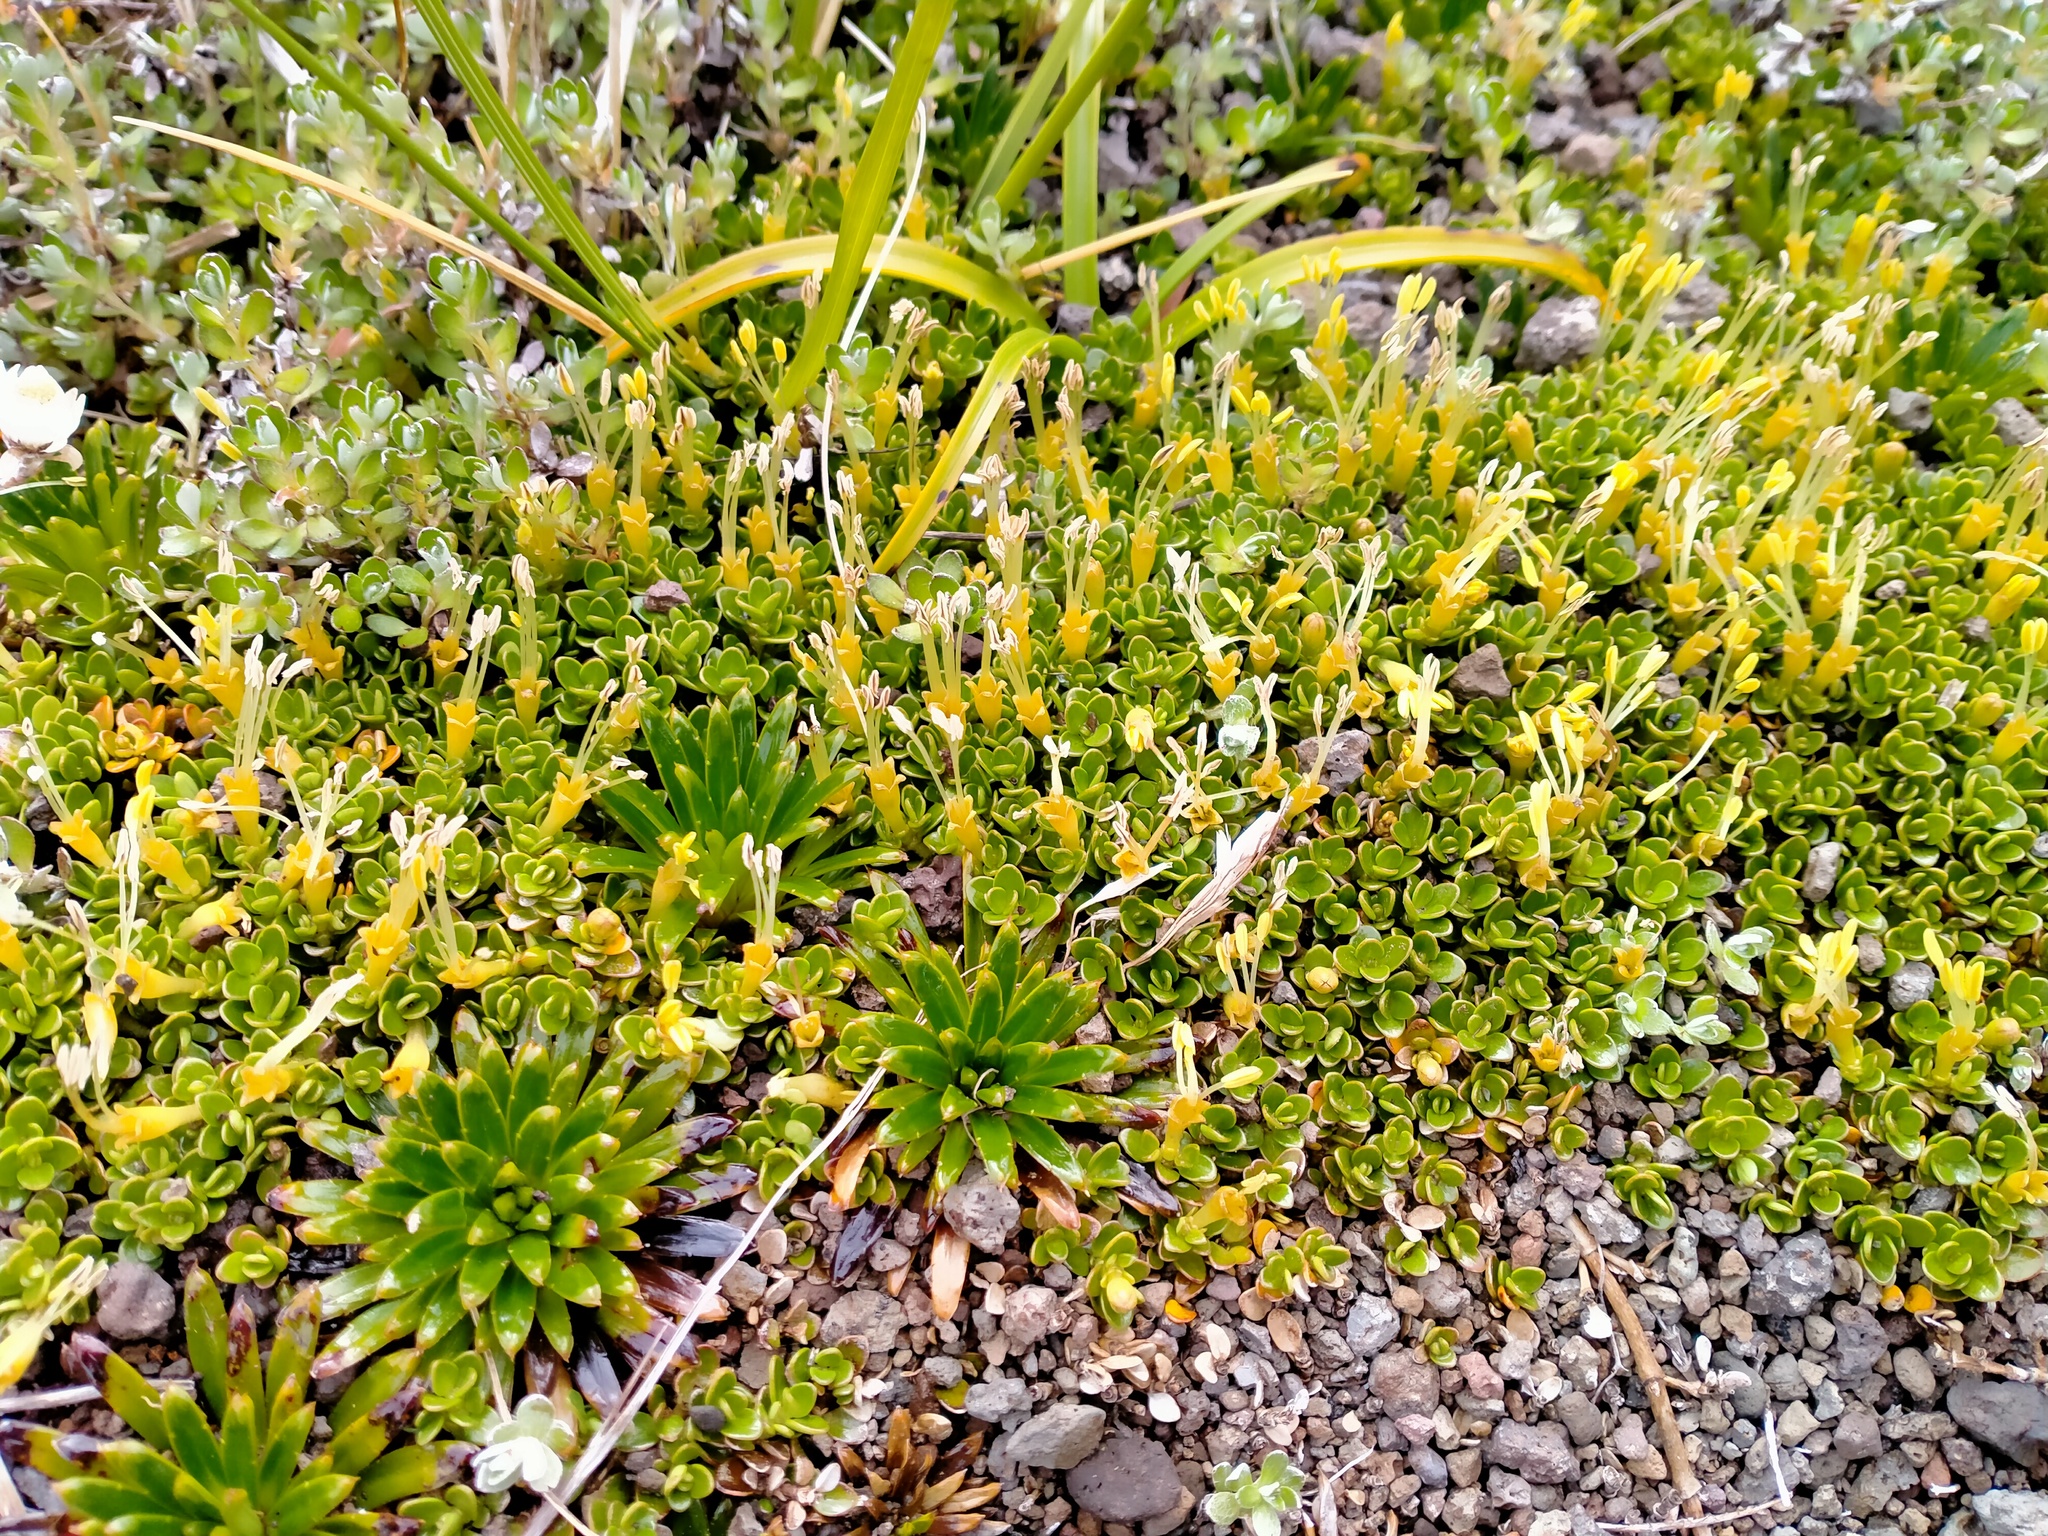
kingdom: Plantae
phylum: Tracheophyta
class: Magnoliopsida
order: Gentianales
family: Rubiaceae
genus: Coprosma
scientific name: Coprosma perpusilla
